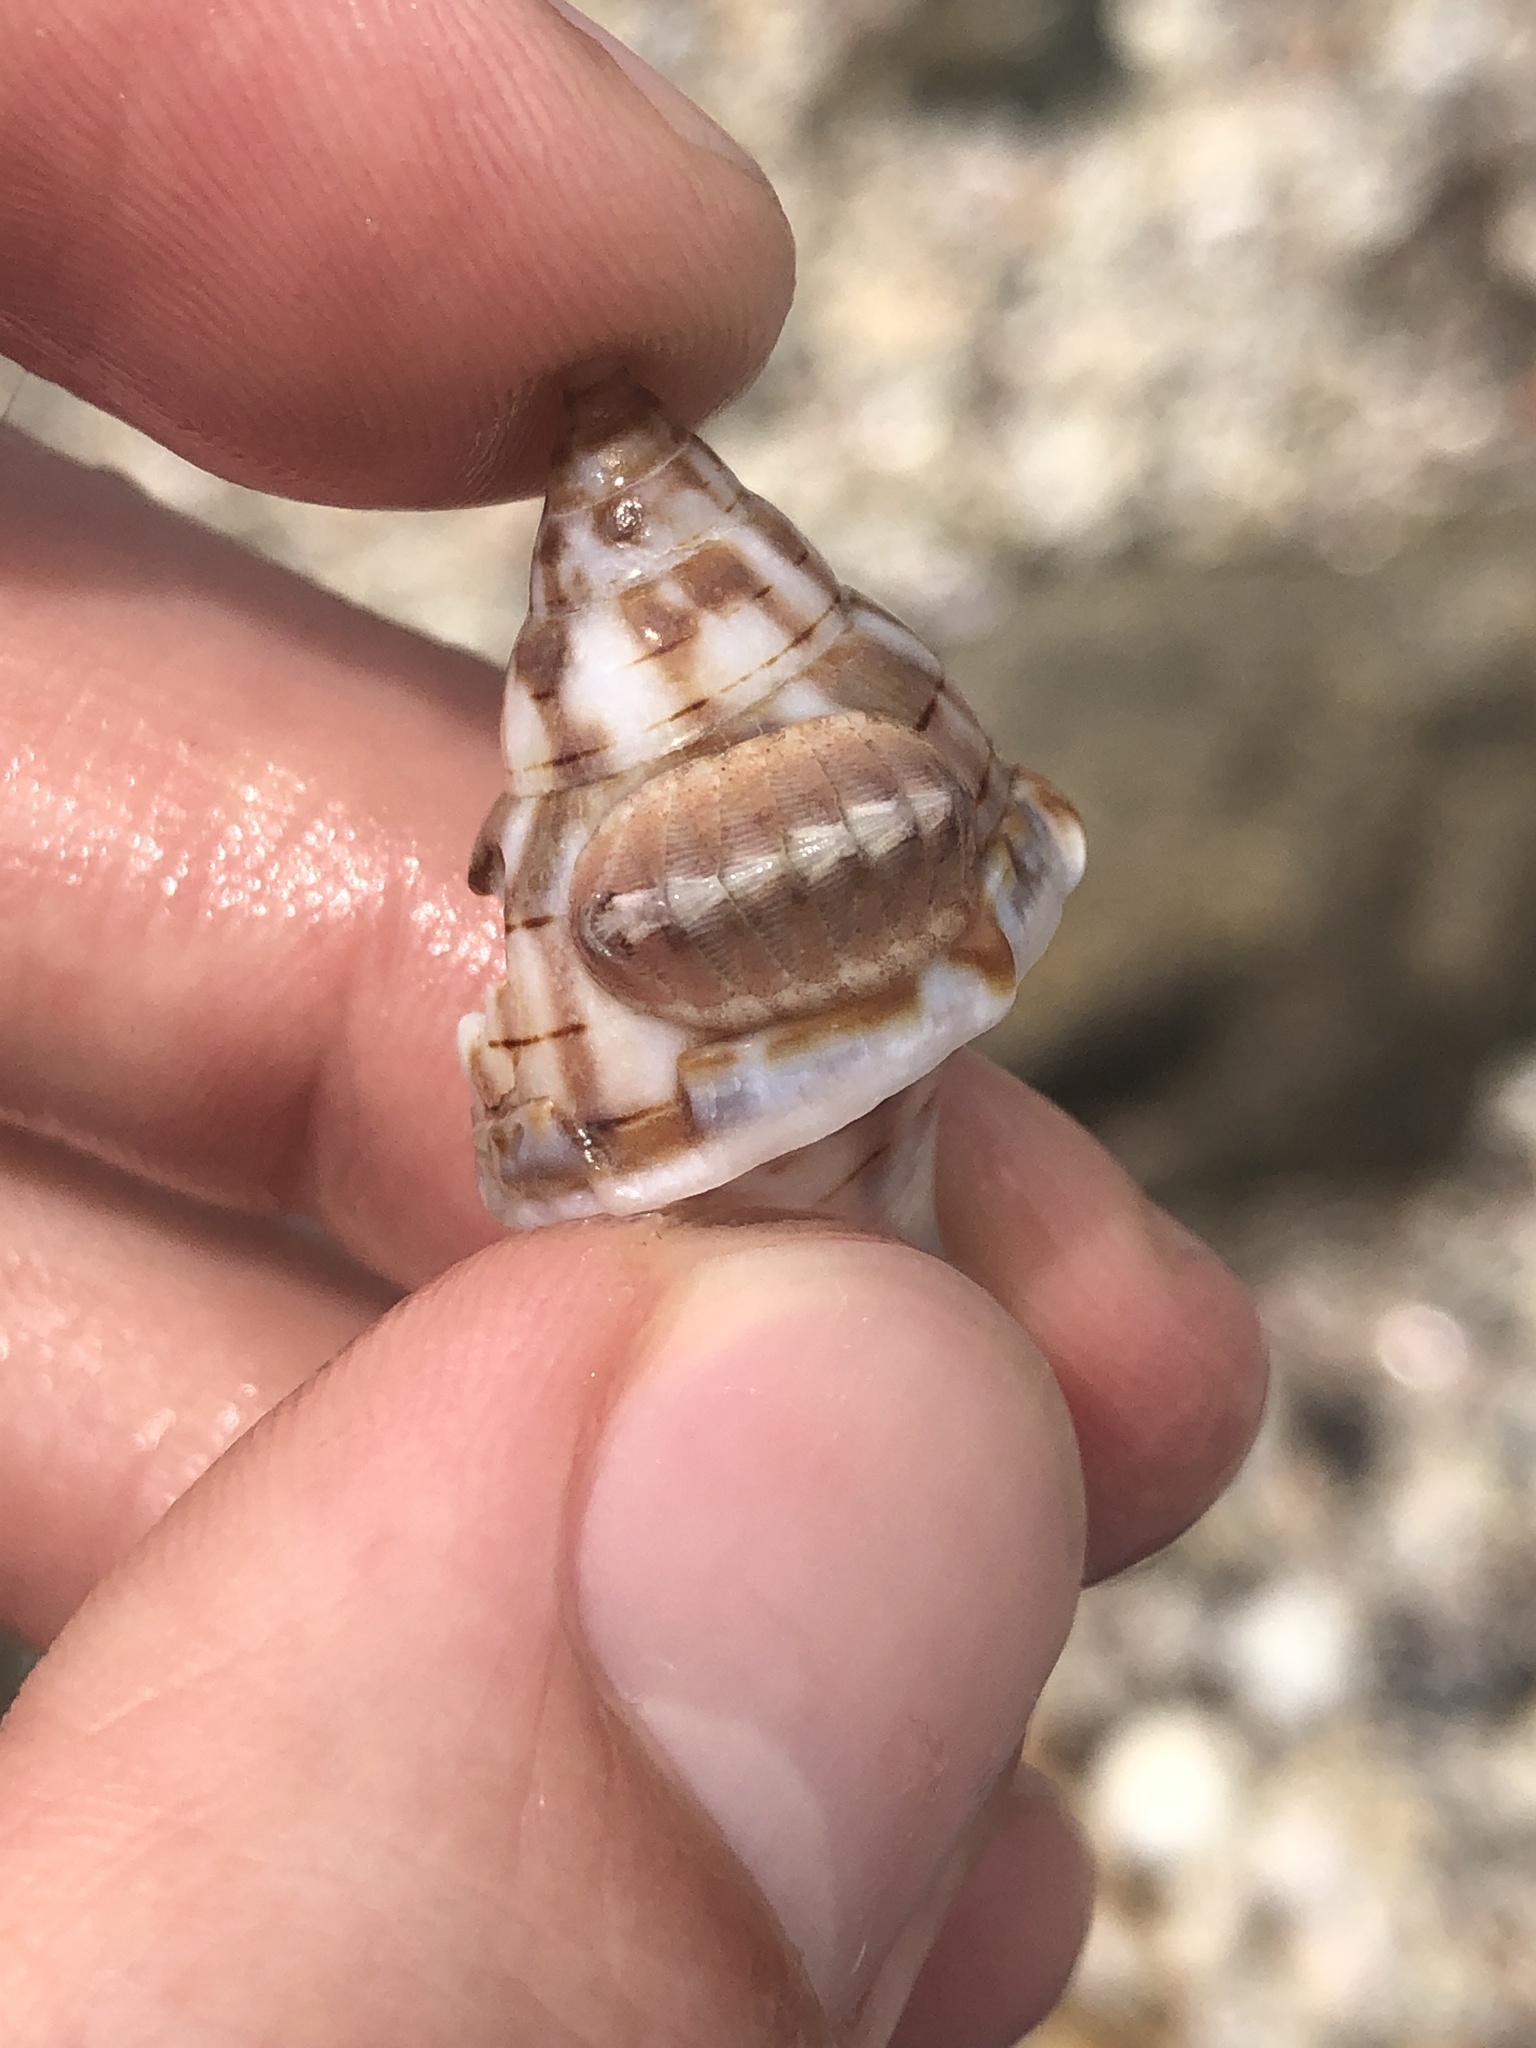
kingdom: Animalia
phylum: Mollusca
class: Polyplacophora
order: Chitonida
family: Chaetopleuridae
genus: Chaetopleura
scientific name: Chaetopleura apiculata
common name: Bee chiton
